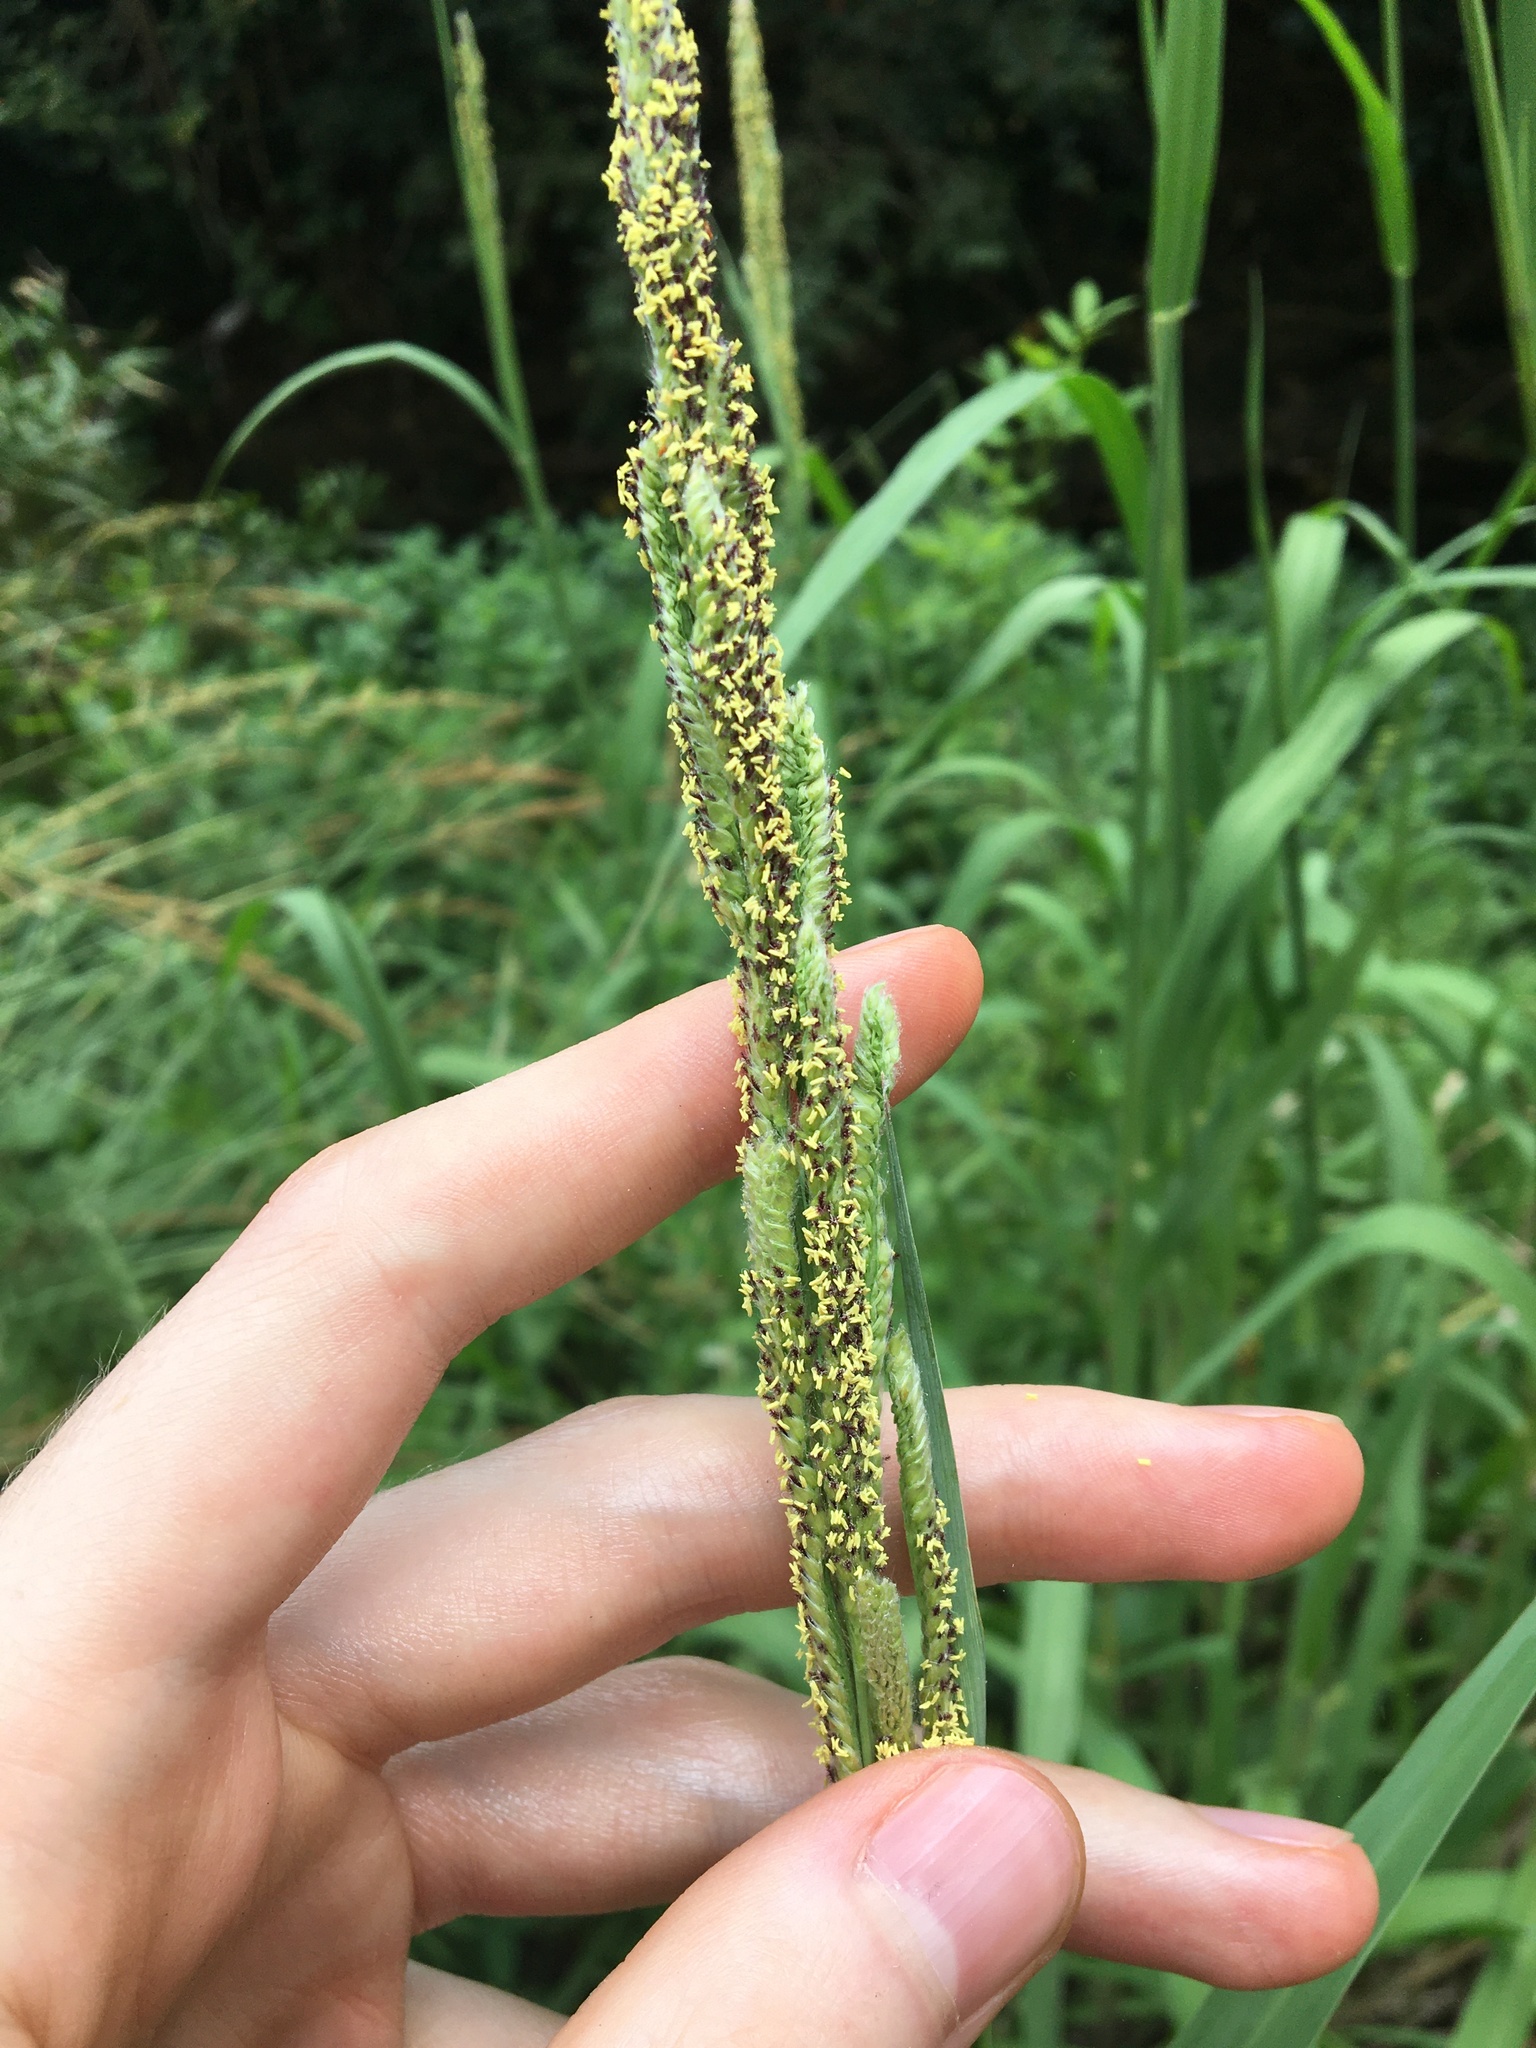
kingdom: Plantae
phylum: Tracheophyta
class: Liliopsida
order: Poales
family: Poaceae
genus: Paspalum
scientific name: Paspalum urvillei
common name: Vasey's grass
